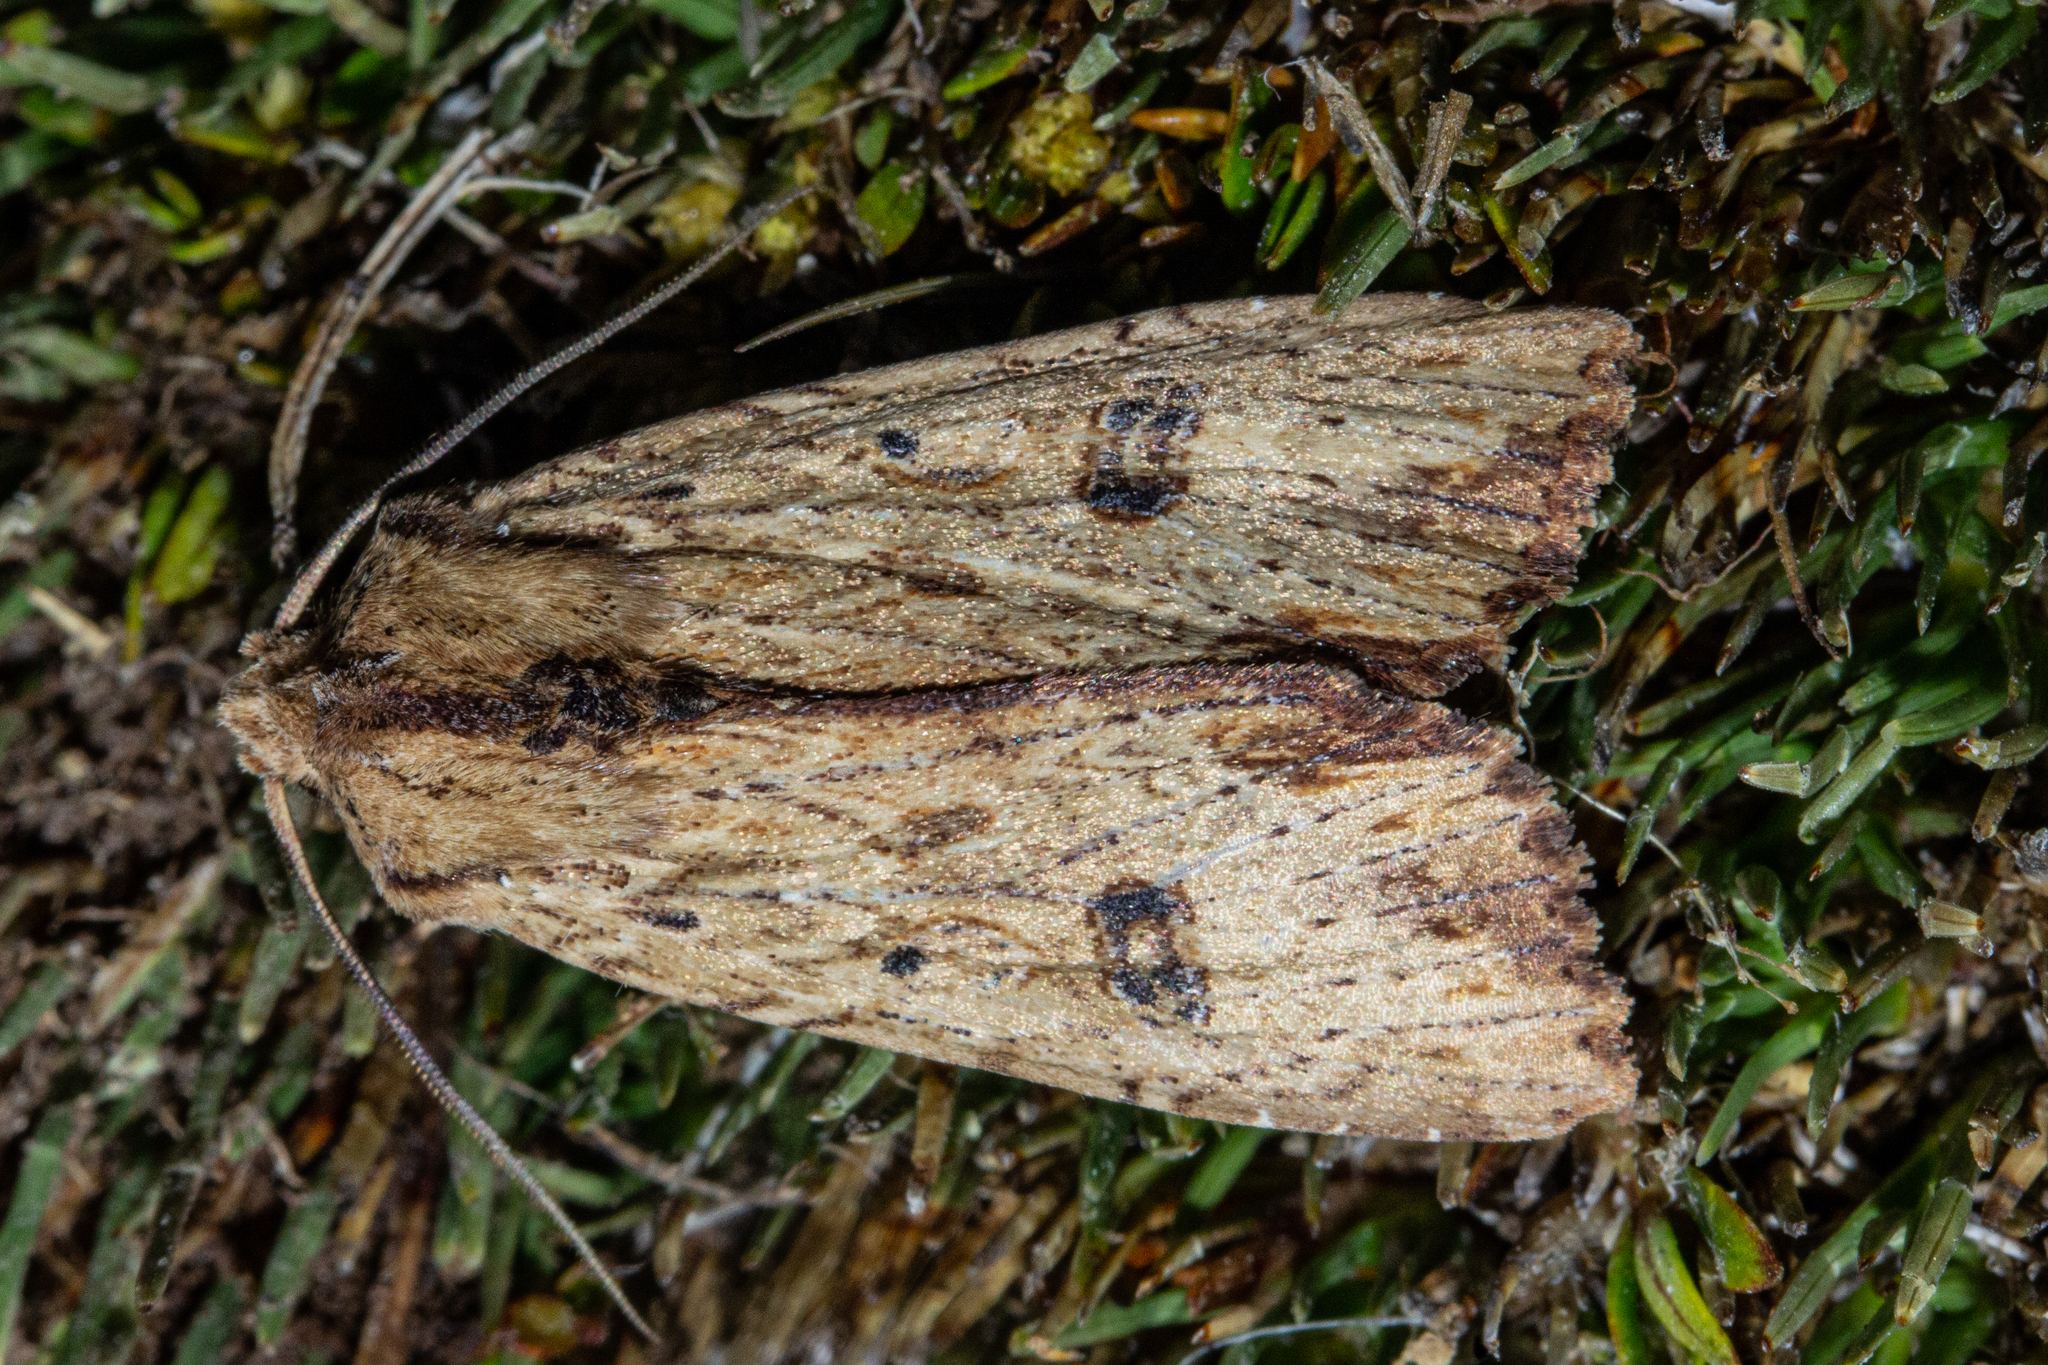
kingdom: Animalia
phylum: Arthropoda
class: Insecta
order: Lepidoptera
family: Noctuidae
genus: Ichneutica
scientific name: Ichneutica
